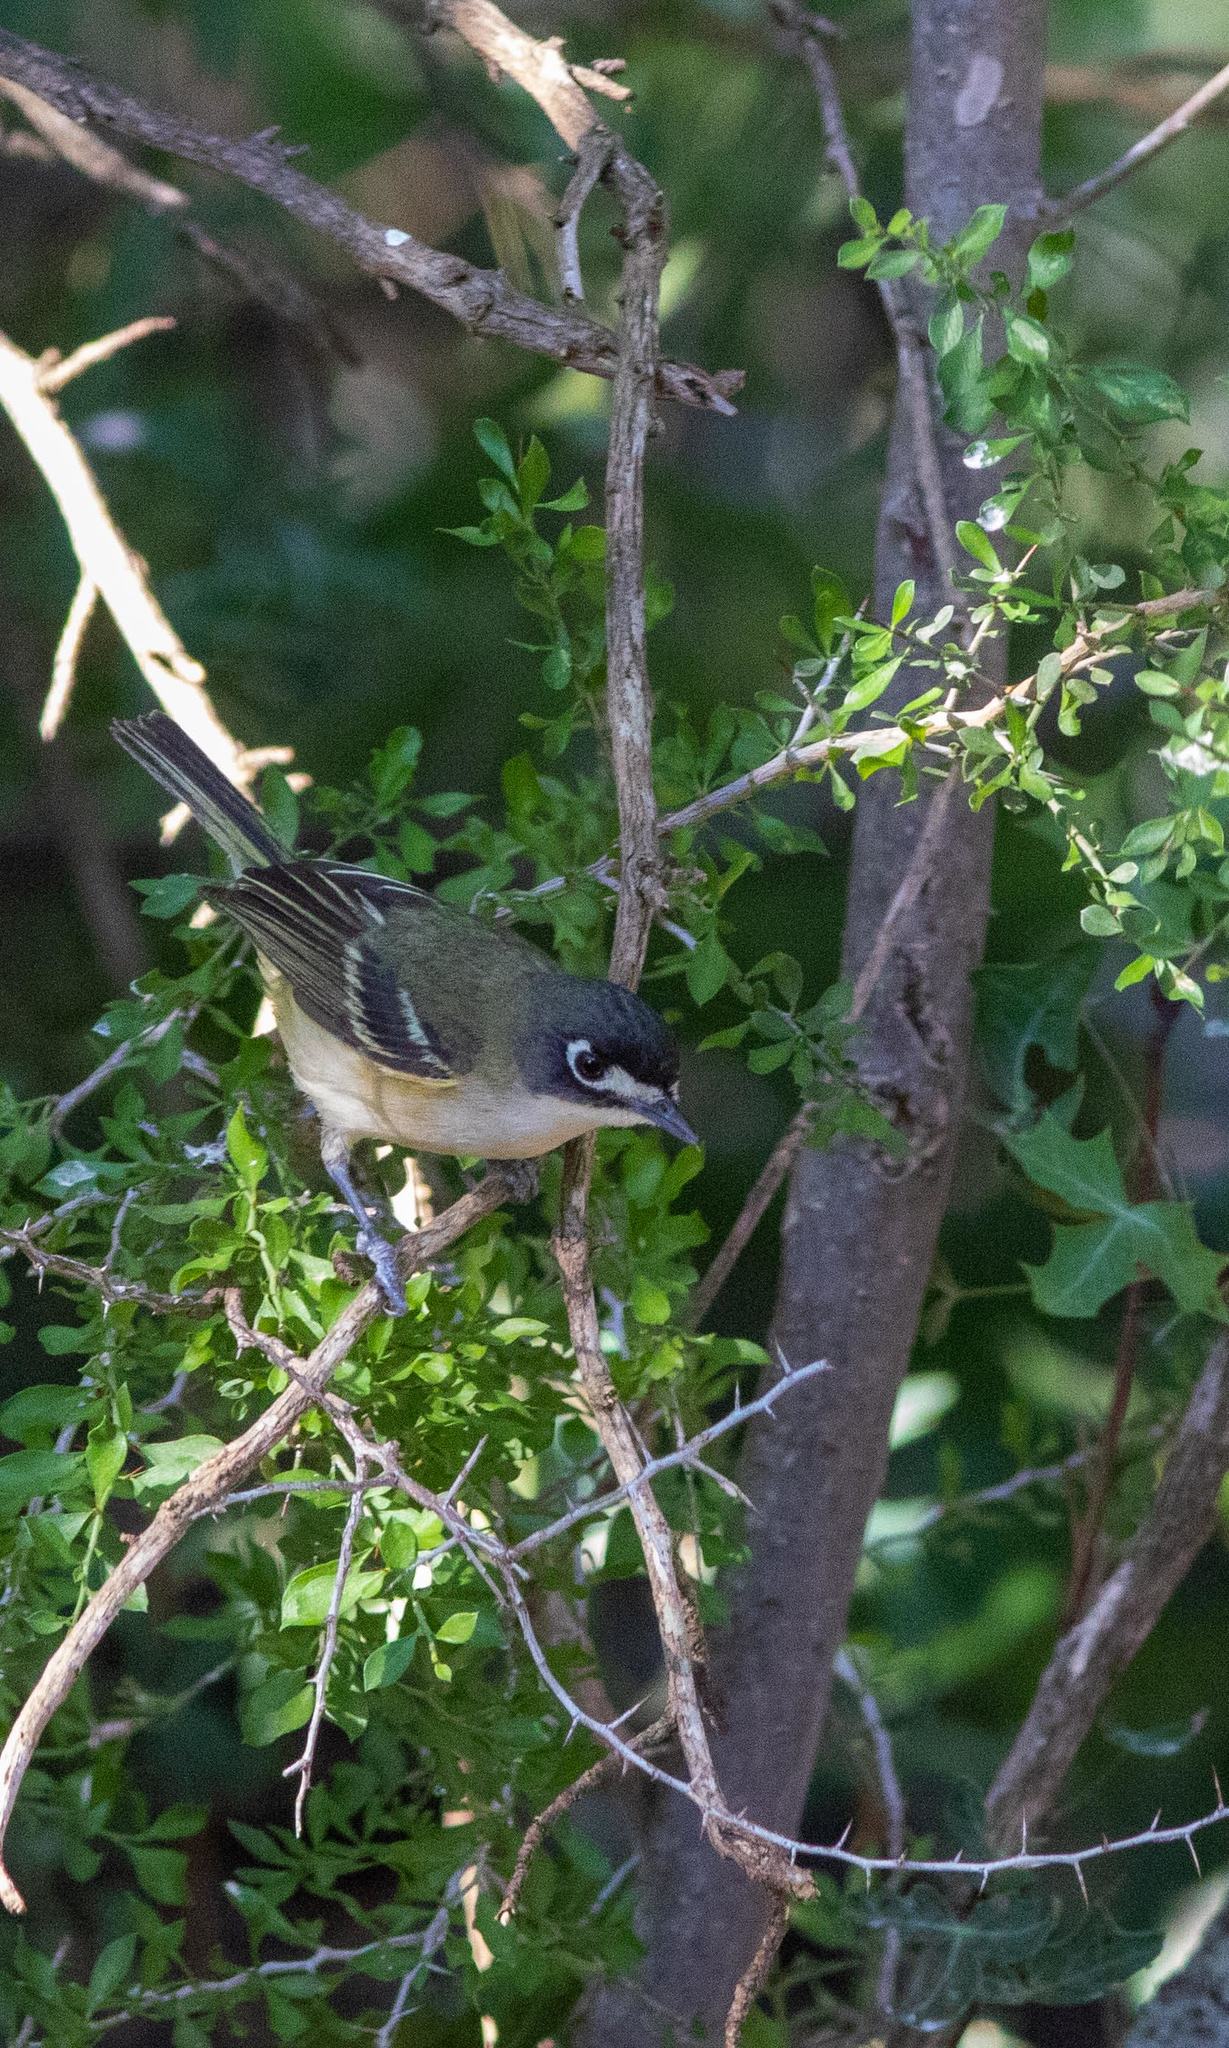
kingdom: Animalia
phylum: Chordata
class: Aves
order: Passeriformes
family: Vireonidae
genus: Vireo
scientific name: Vireo atricapilla
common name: Black-capped vireo
